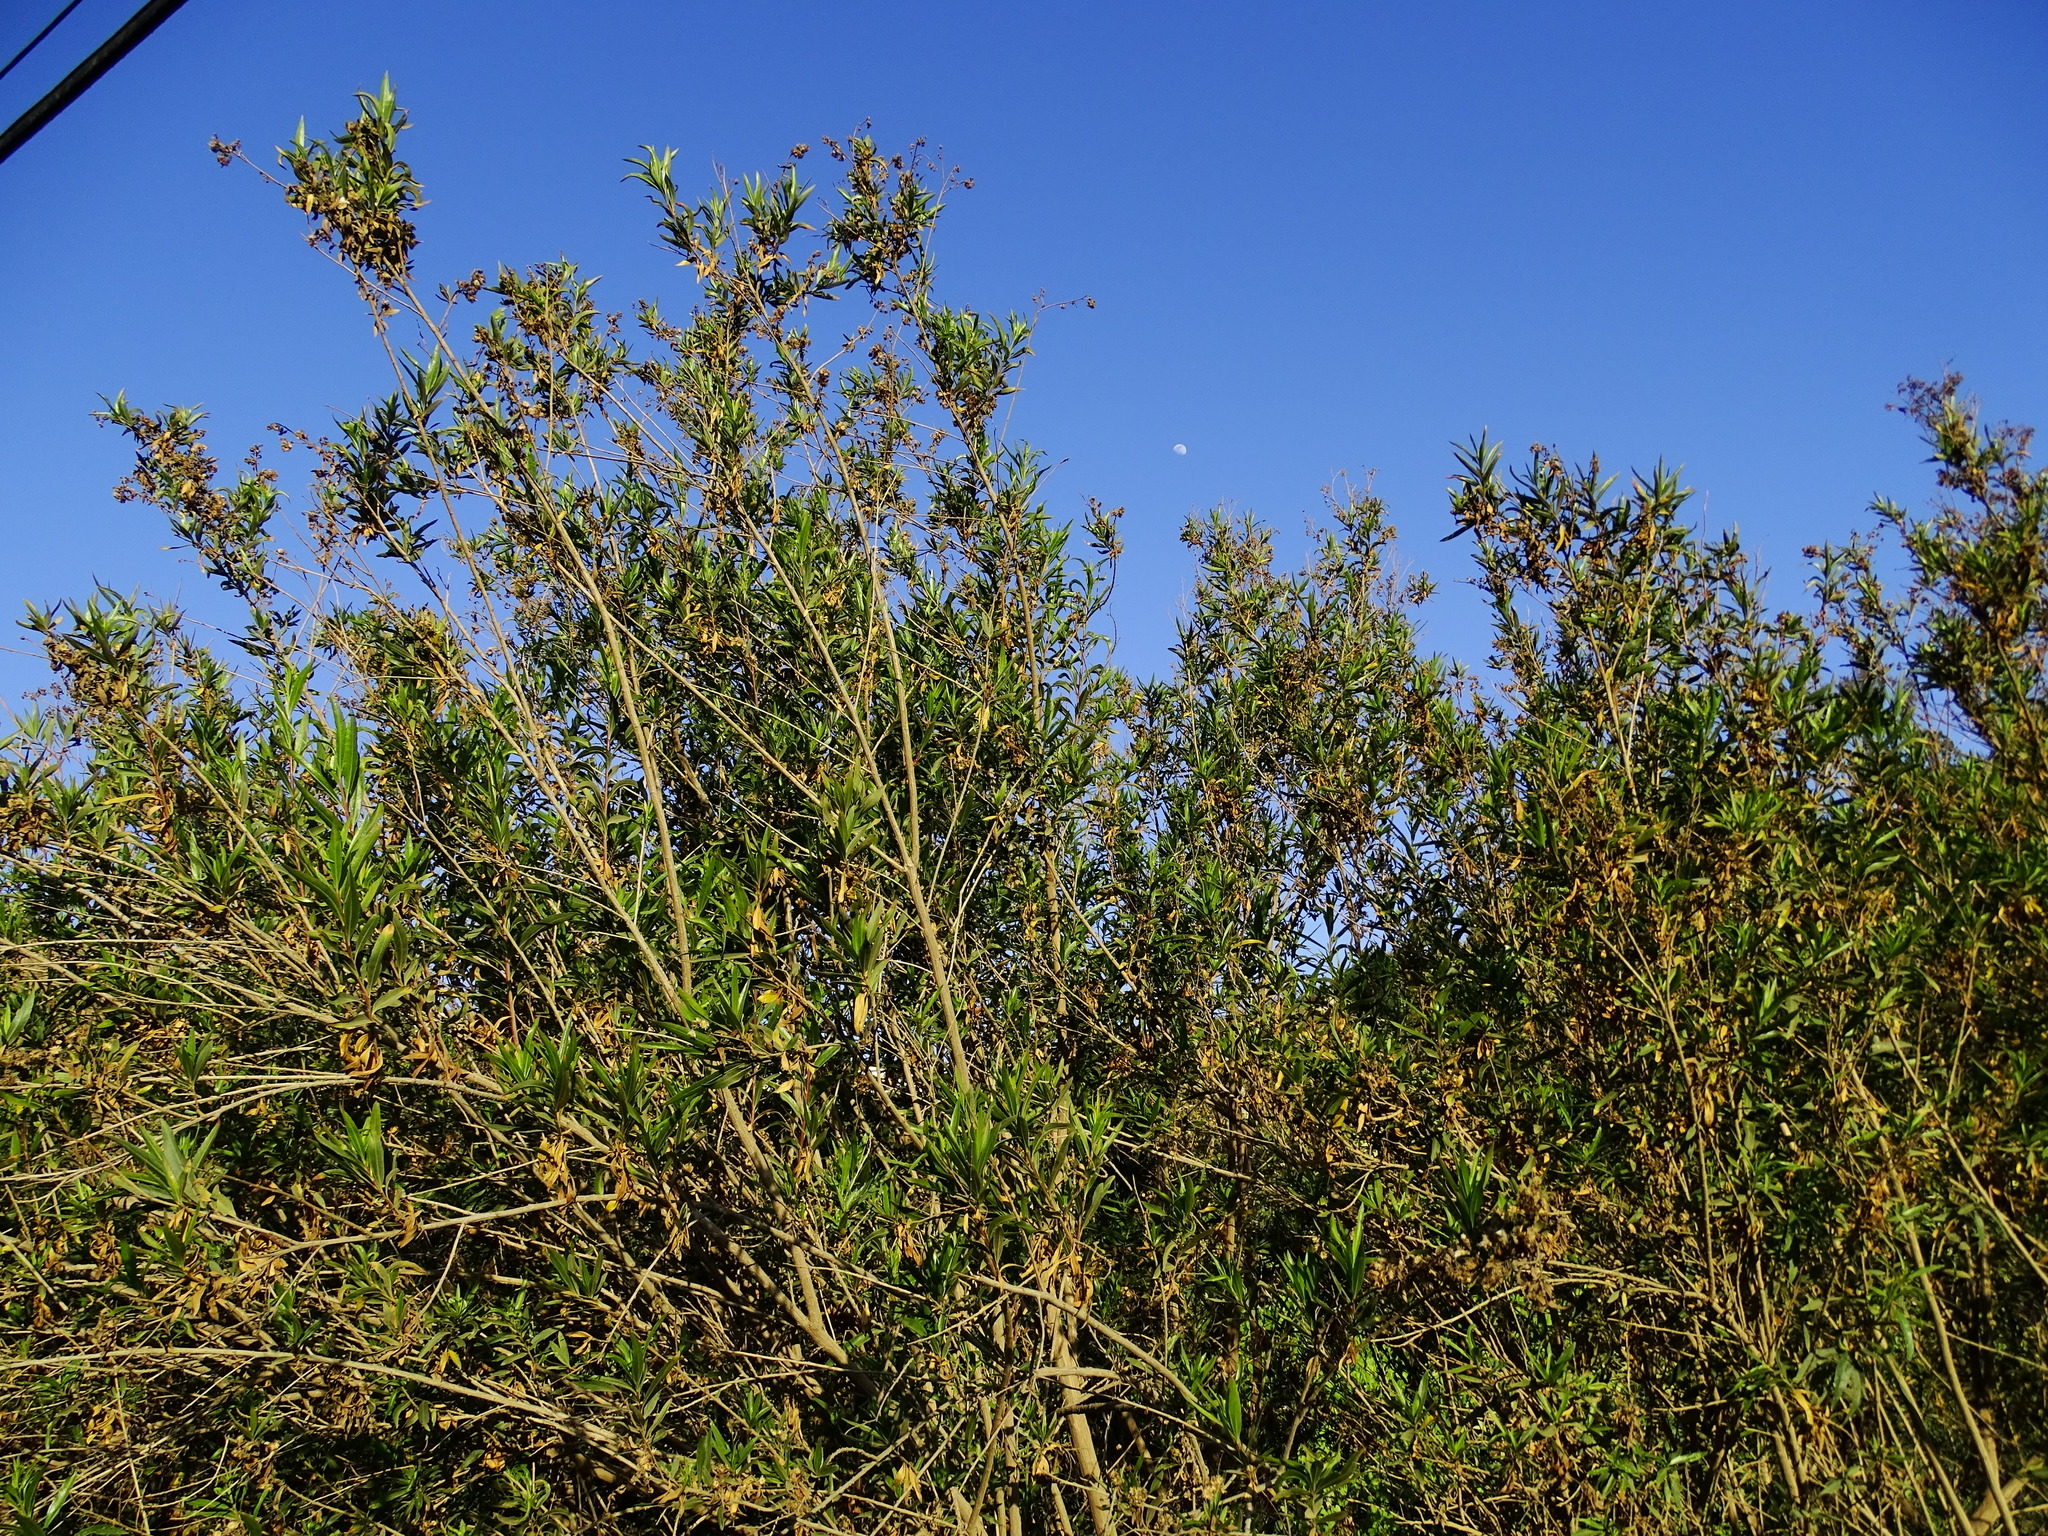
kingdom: Plantae
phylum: Tracheophyta
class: Magnoliopsida
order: Asterales
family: Asteraceae
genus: Baccharis
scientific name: Baccharis salicifolia
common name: Sticky baccharis
